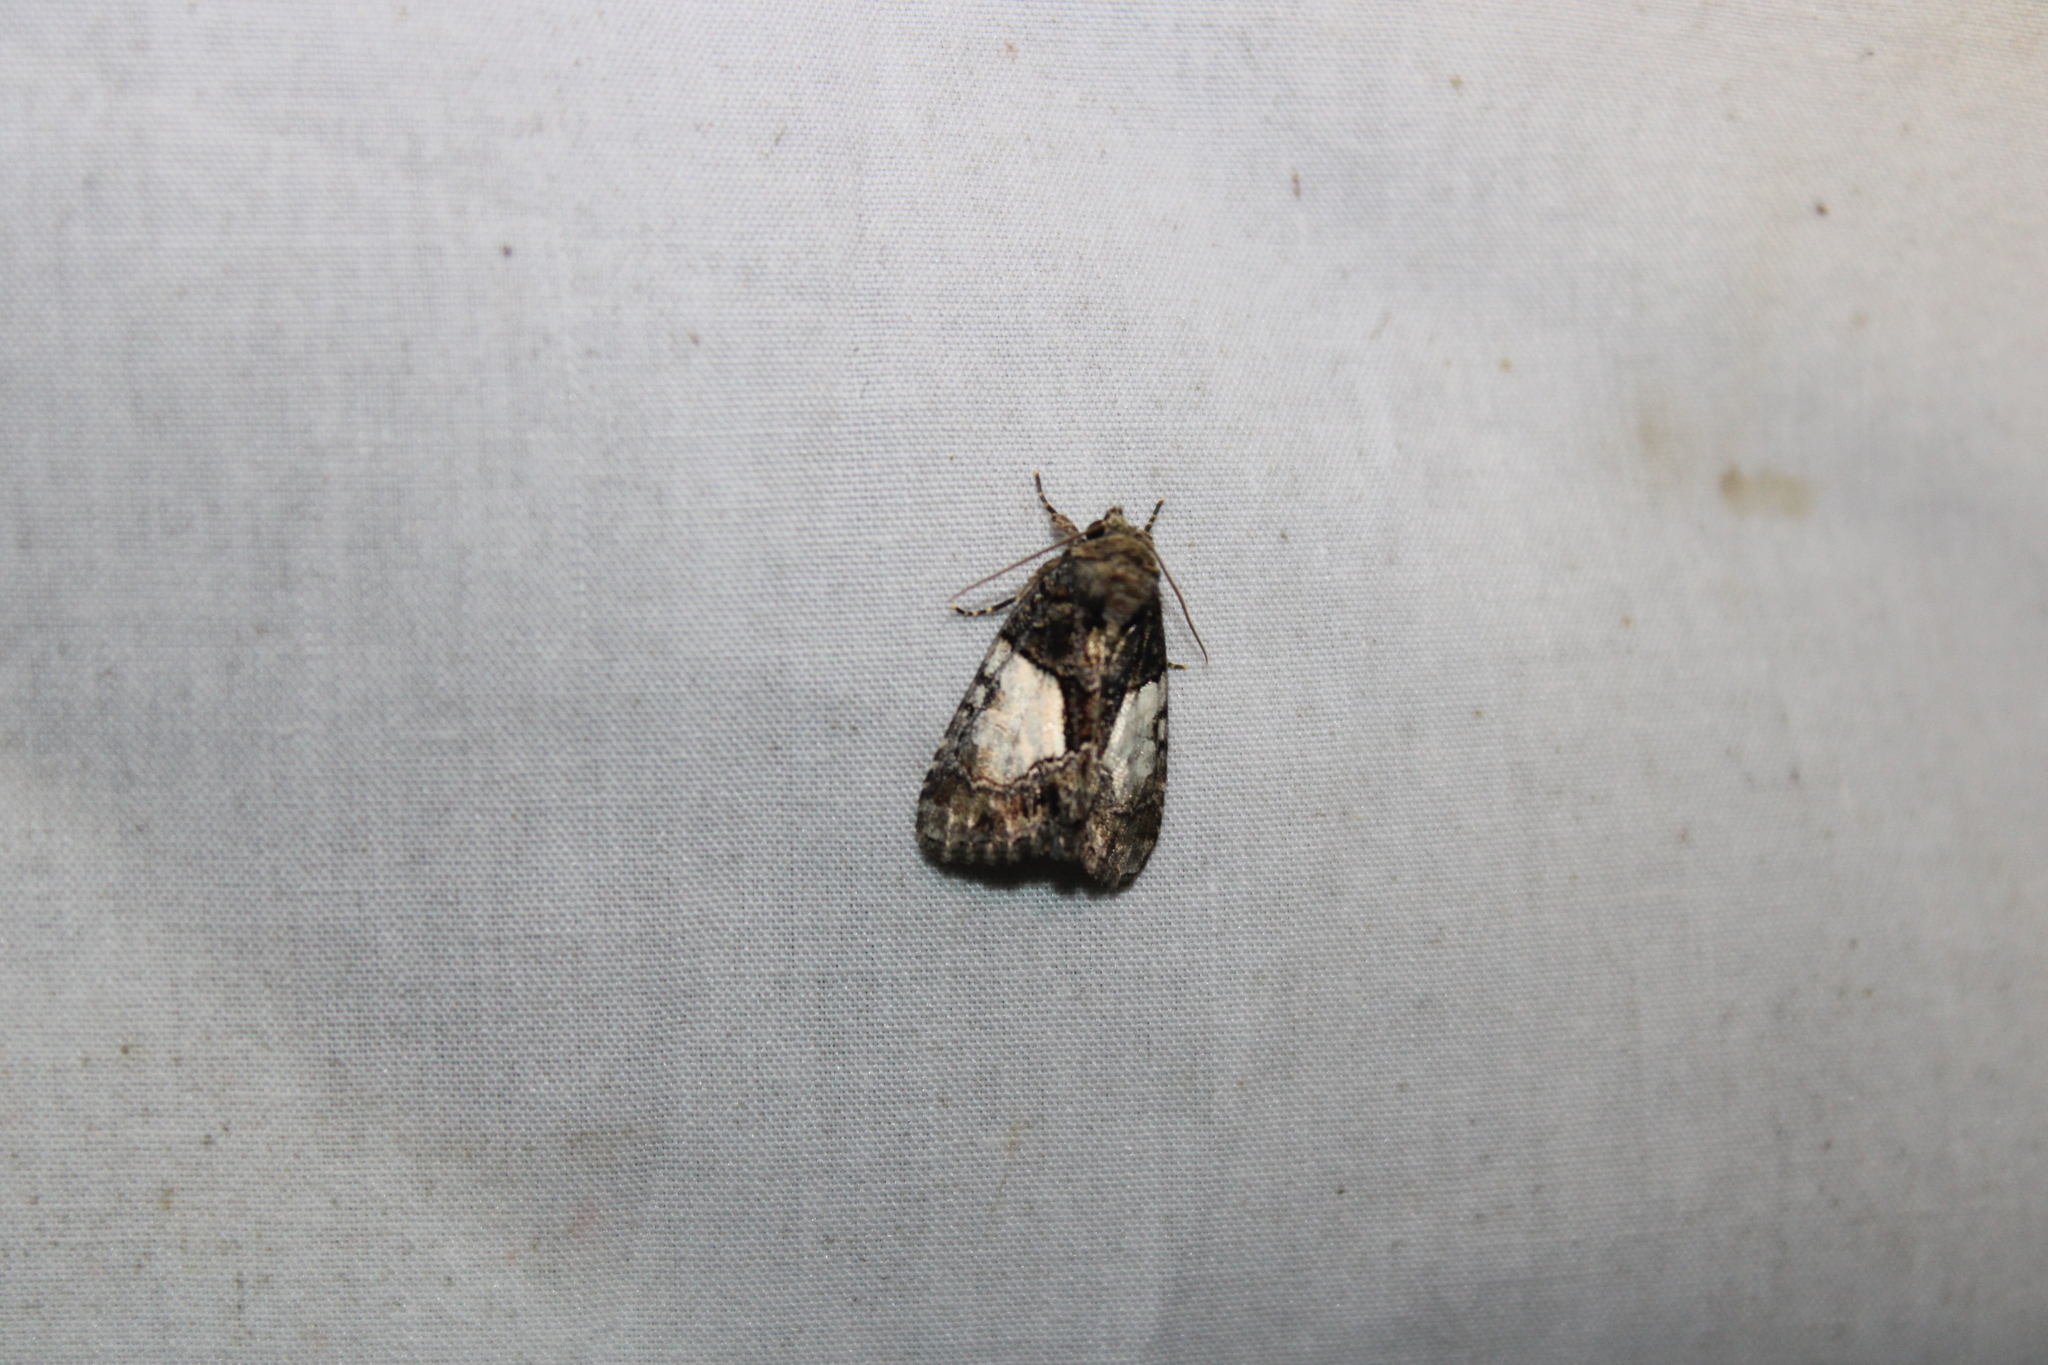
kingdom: Animalia
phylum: Arthropoda
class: Insecta
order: Lepidoptera
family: Noctuidae
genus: Chytonix
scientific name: Chytonix palliatricula
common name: Cloaked marvel
